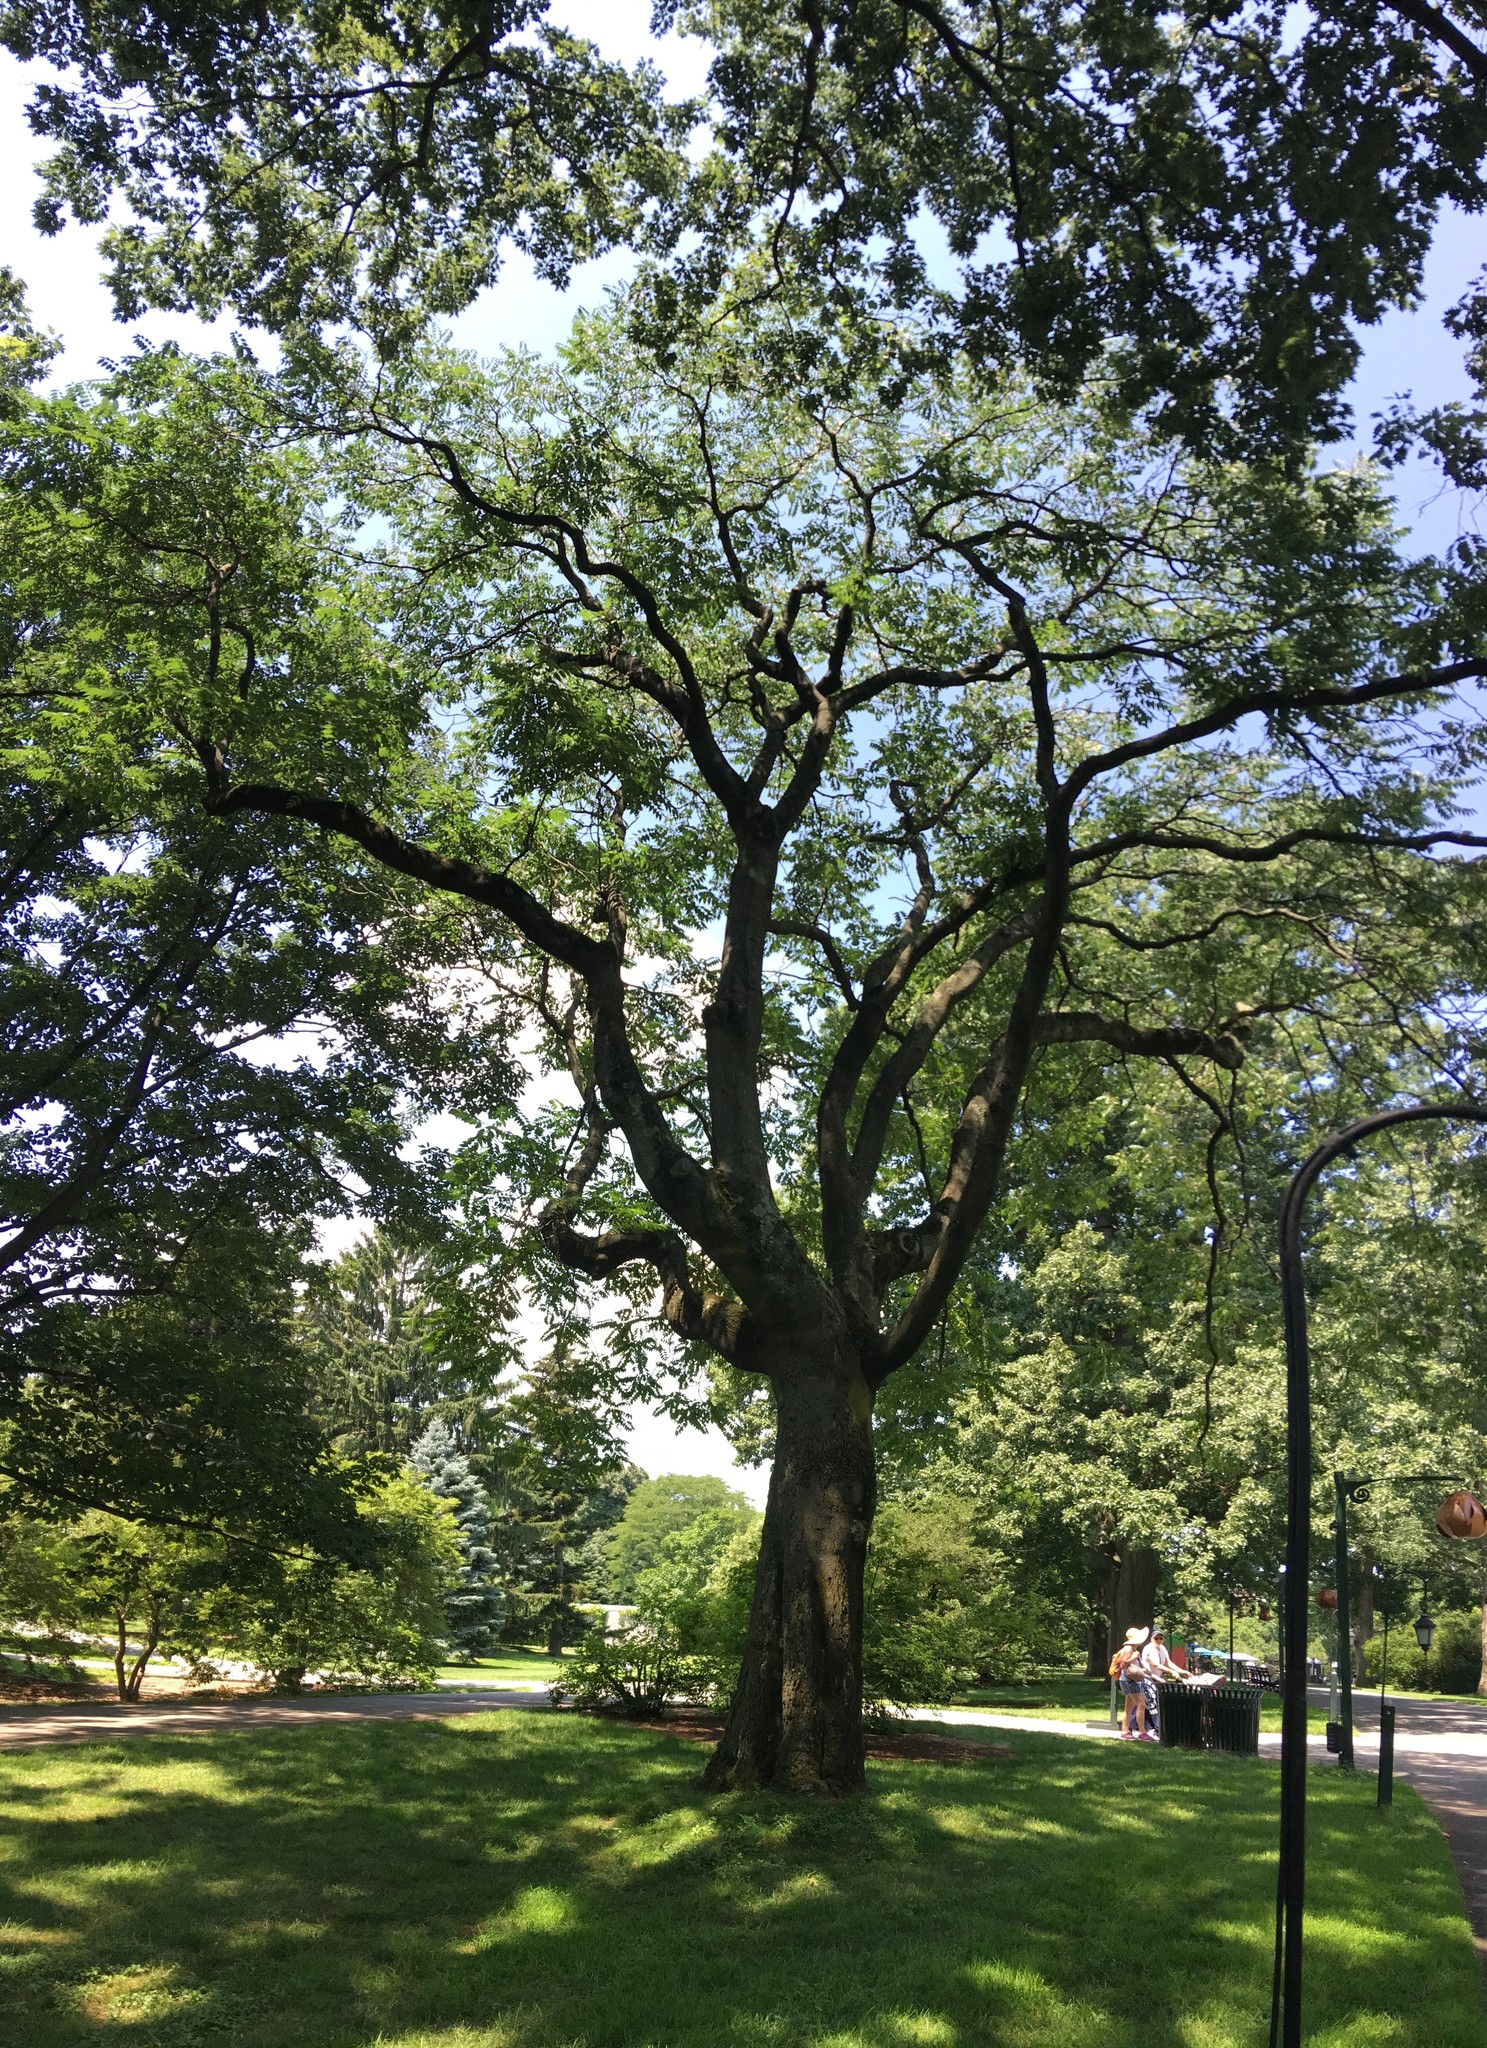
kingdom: Plantae
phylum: Tracheophyta
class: Magnoliopsida
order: Sapindales
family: Simaroubaceae
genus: Ailanthus
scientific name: Ailanthus altissima
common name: Tree-of-heaven
